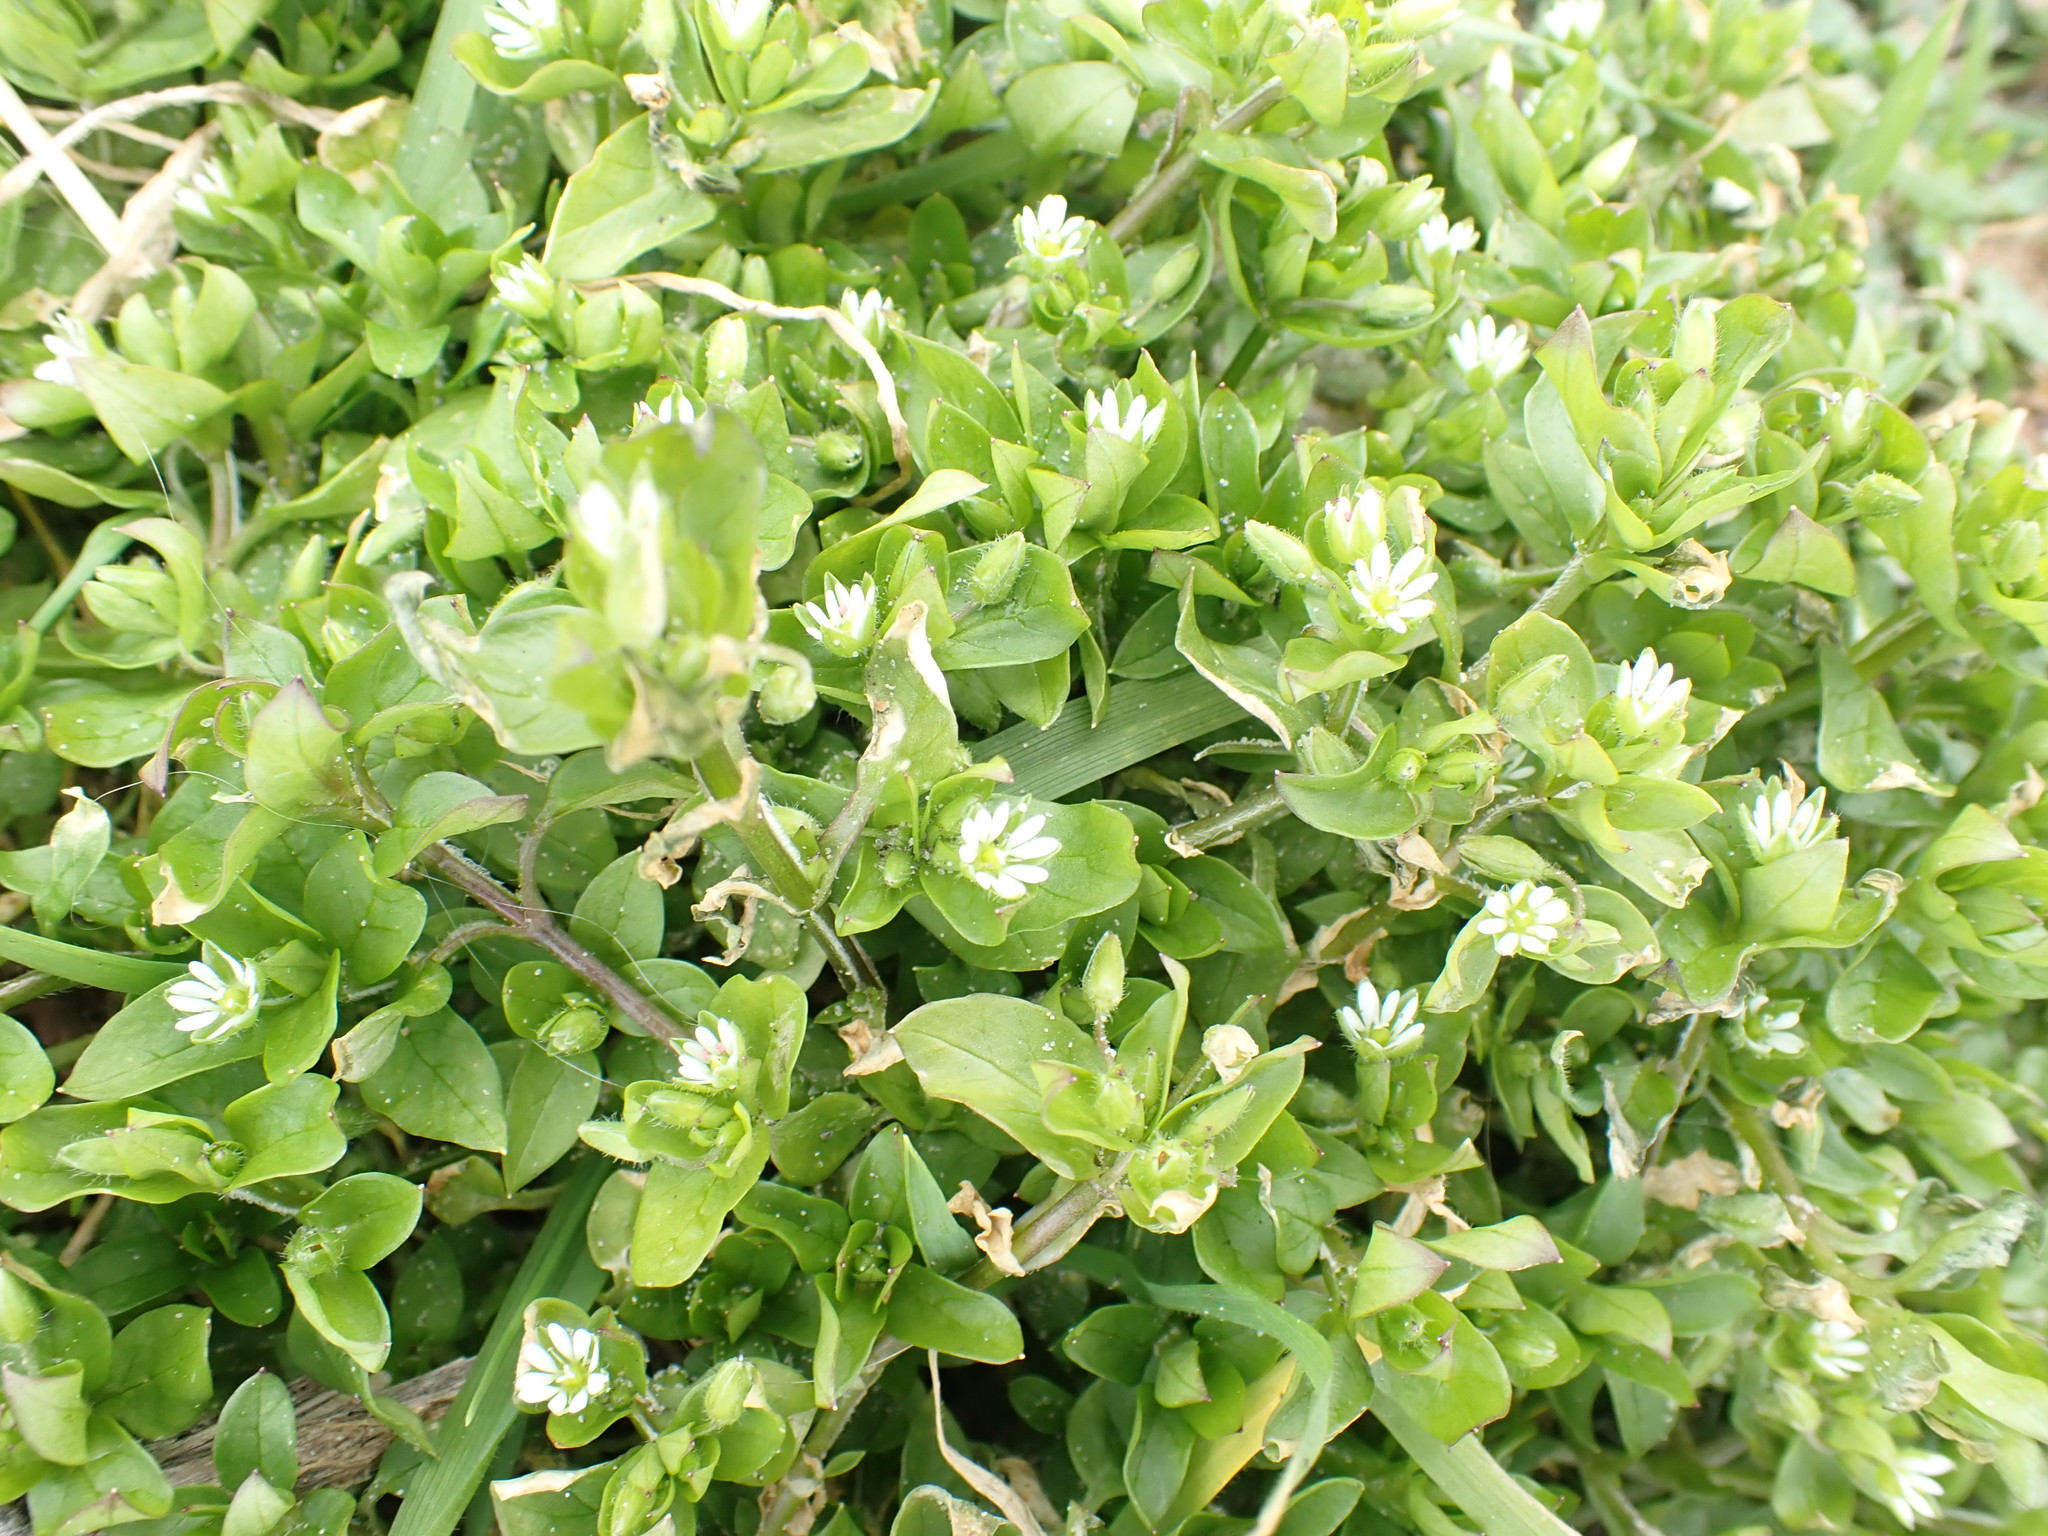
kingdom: Plantae
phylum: Tracheophyta
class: Magnoliopsida
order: Caryophyllales
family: Caryophyllaceae
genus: Stellaria
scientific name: Stellaria media
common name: Common chickweed
